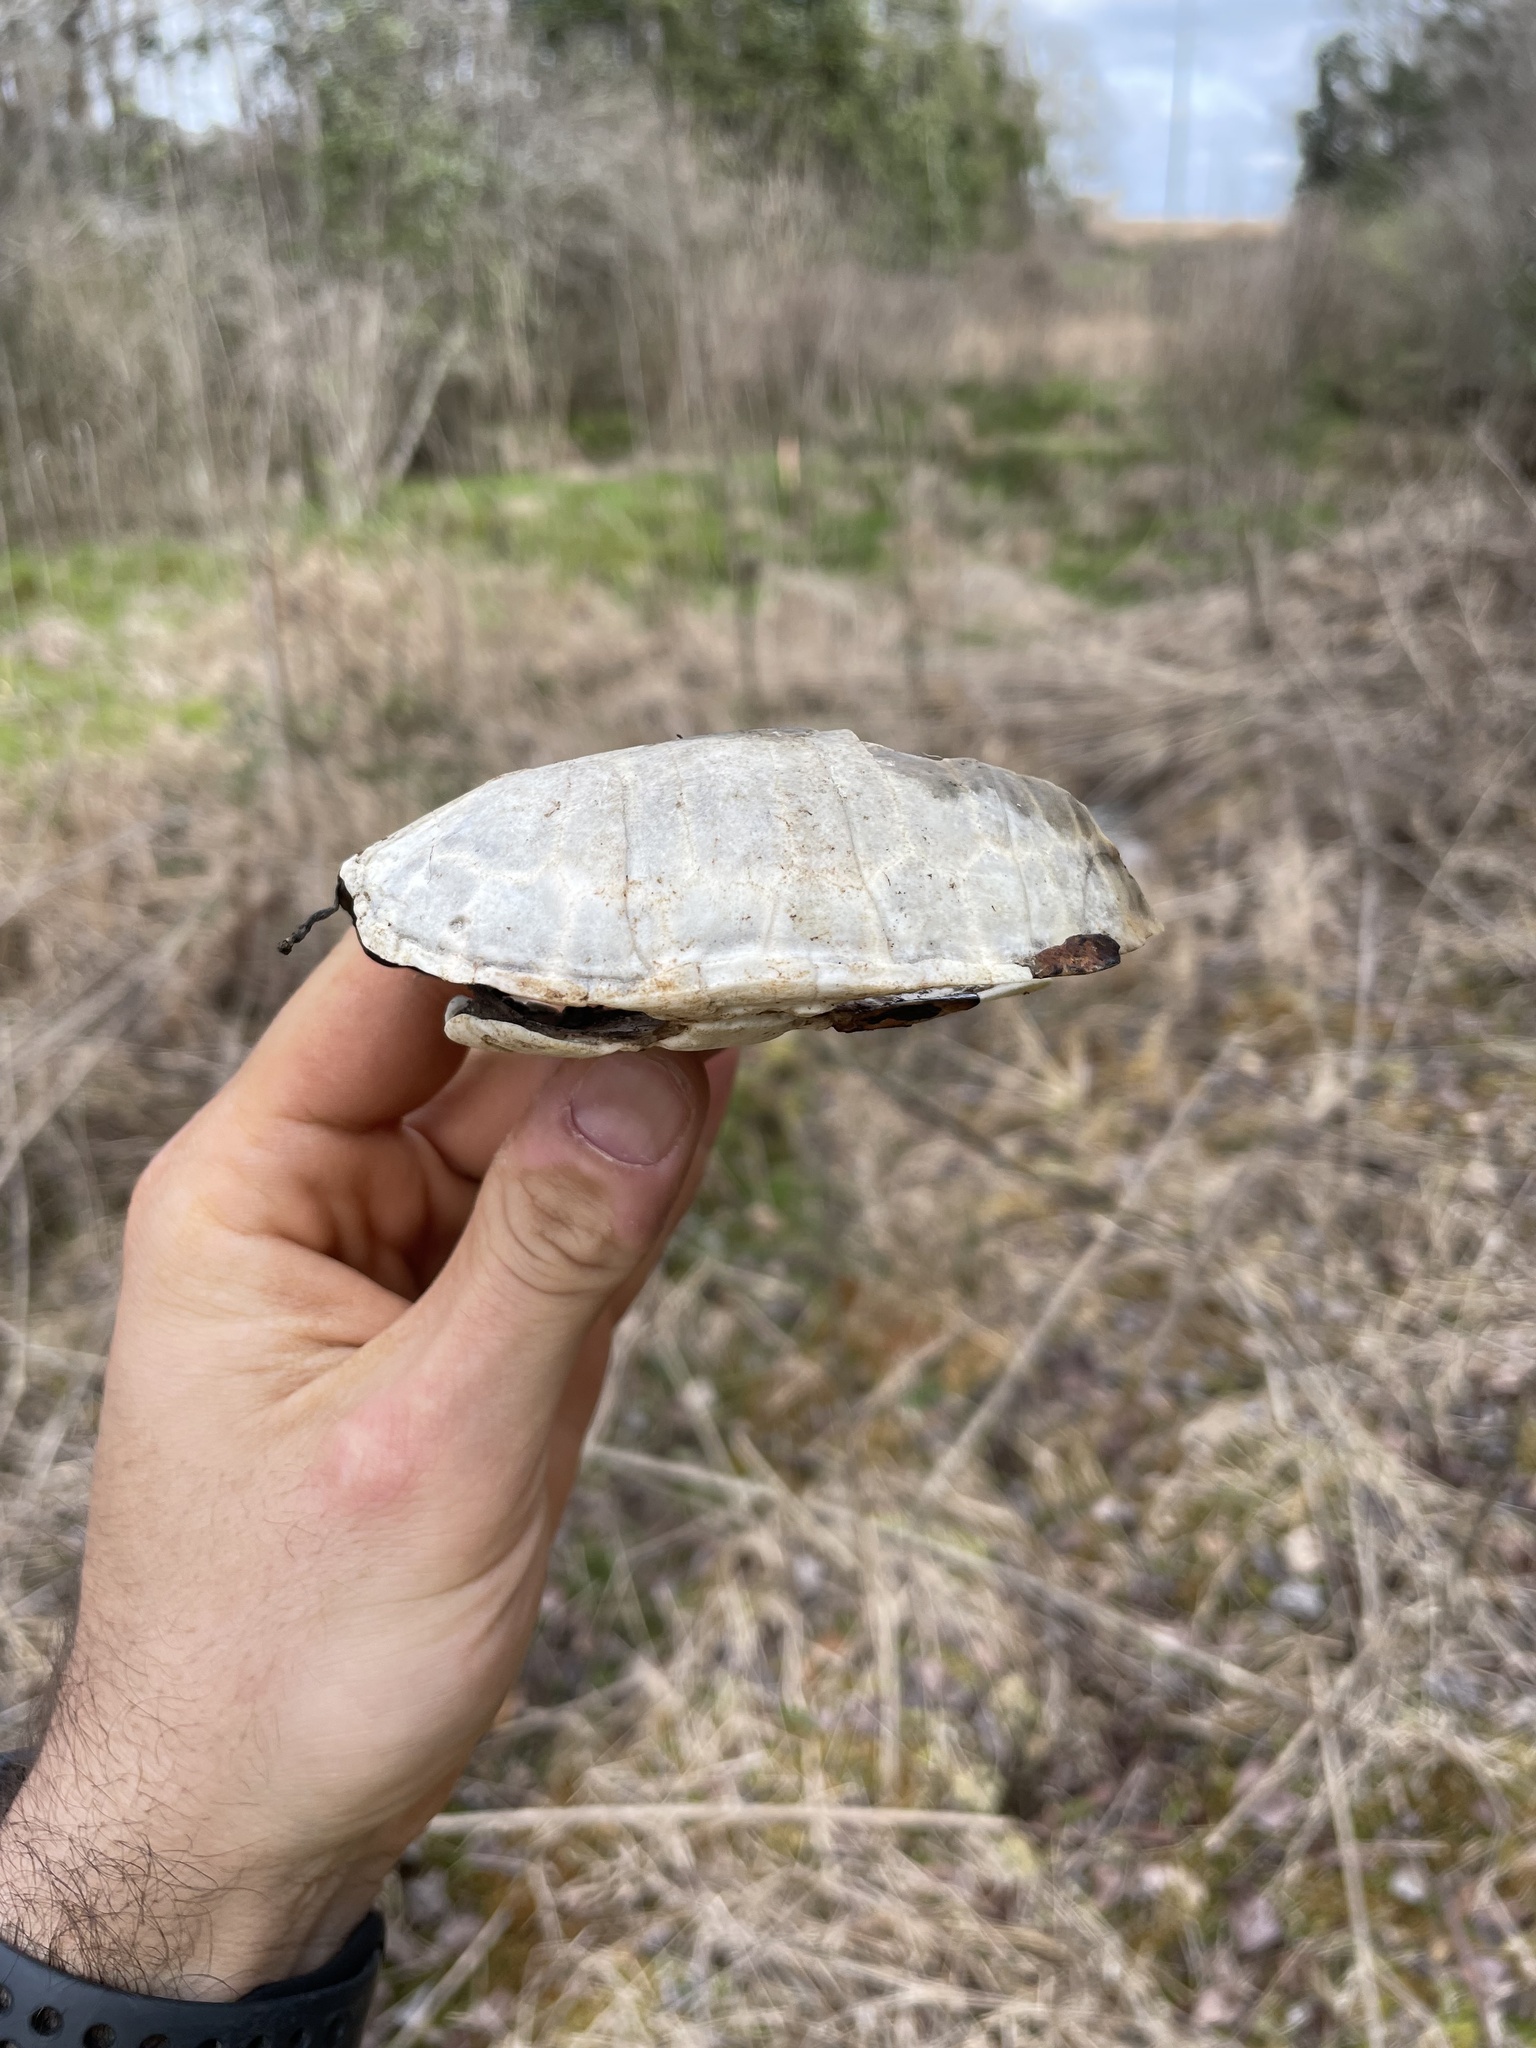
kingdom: Animalia
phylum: Chordata
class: Testudines
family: Kinosternidae
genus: Sternotherus
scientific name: Sternotherus odoratus
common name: Common musk turtle
